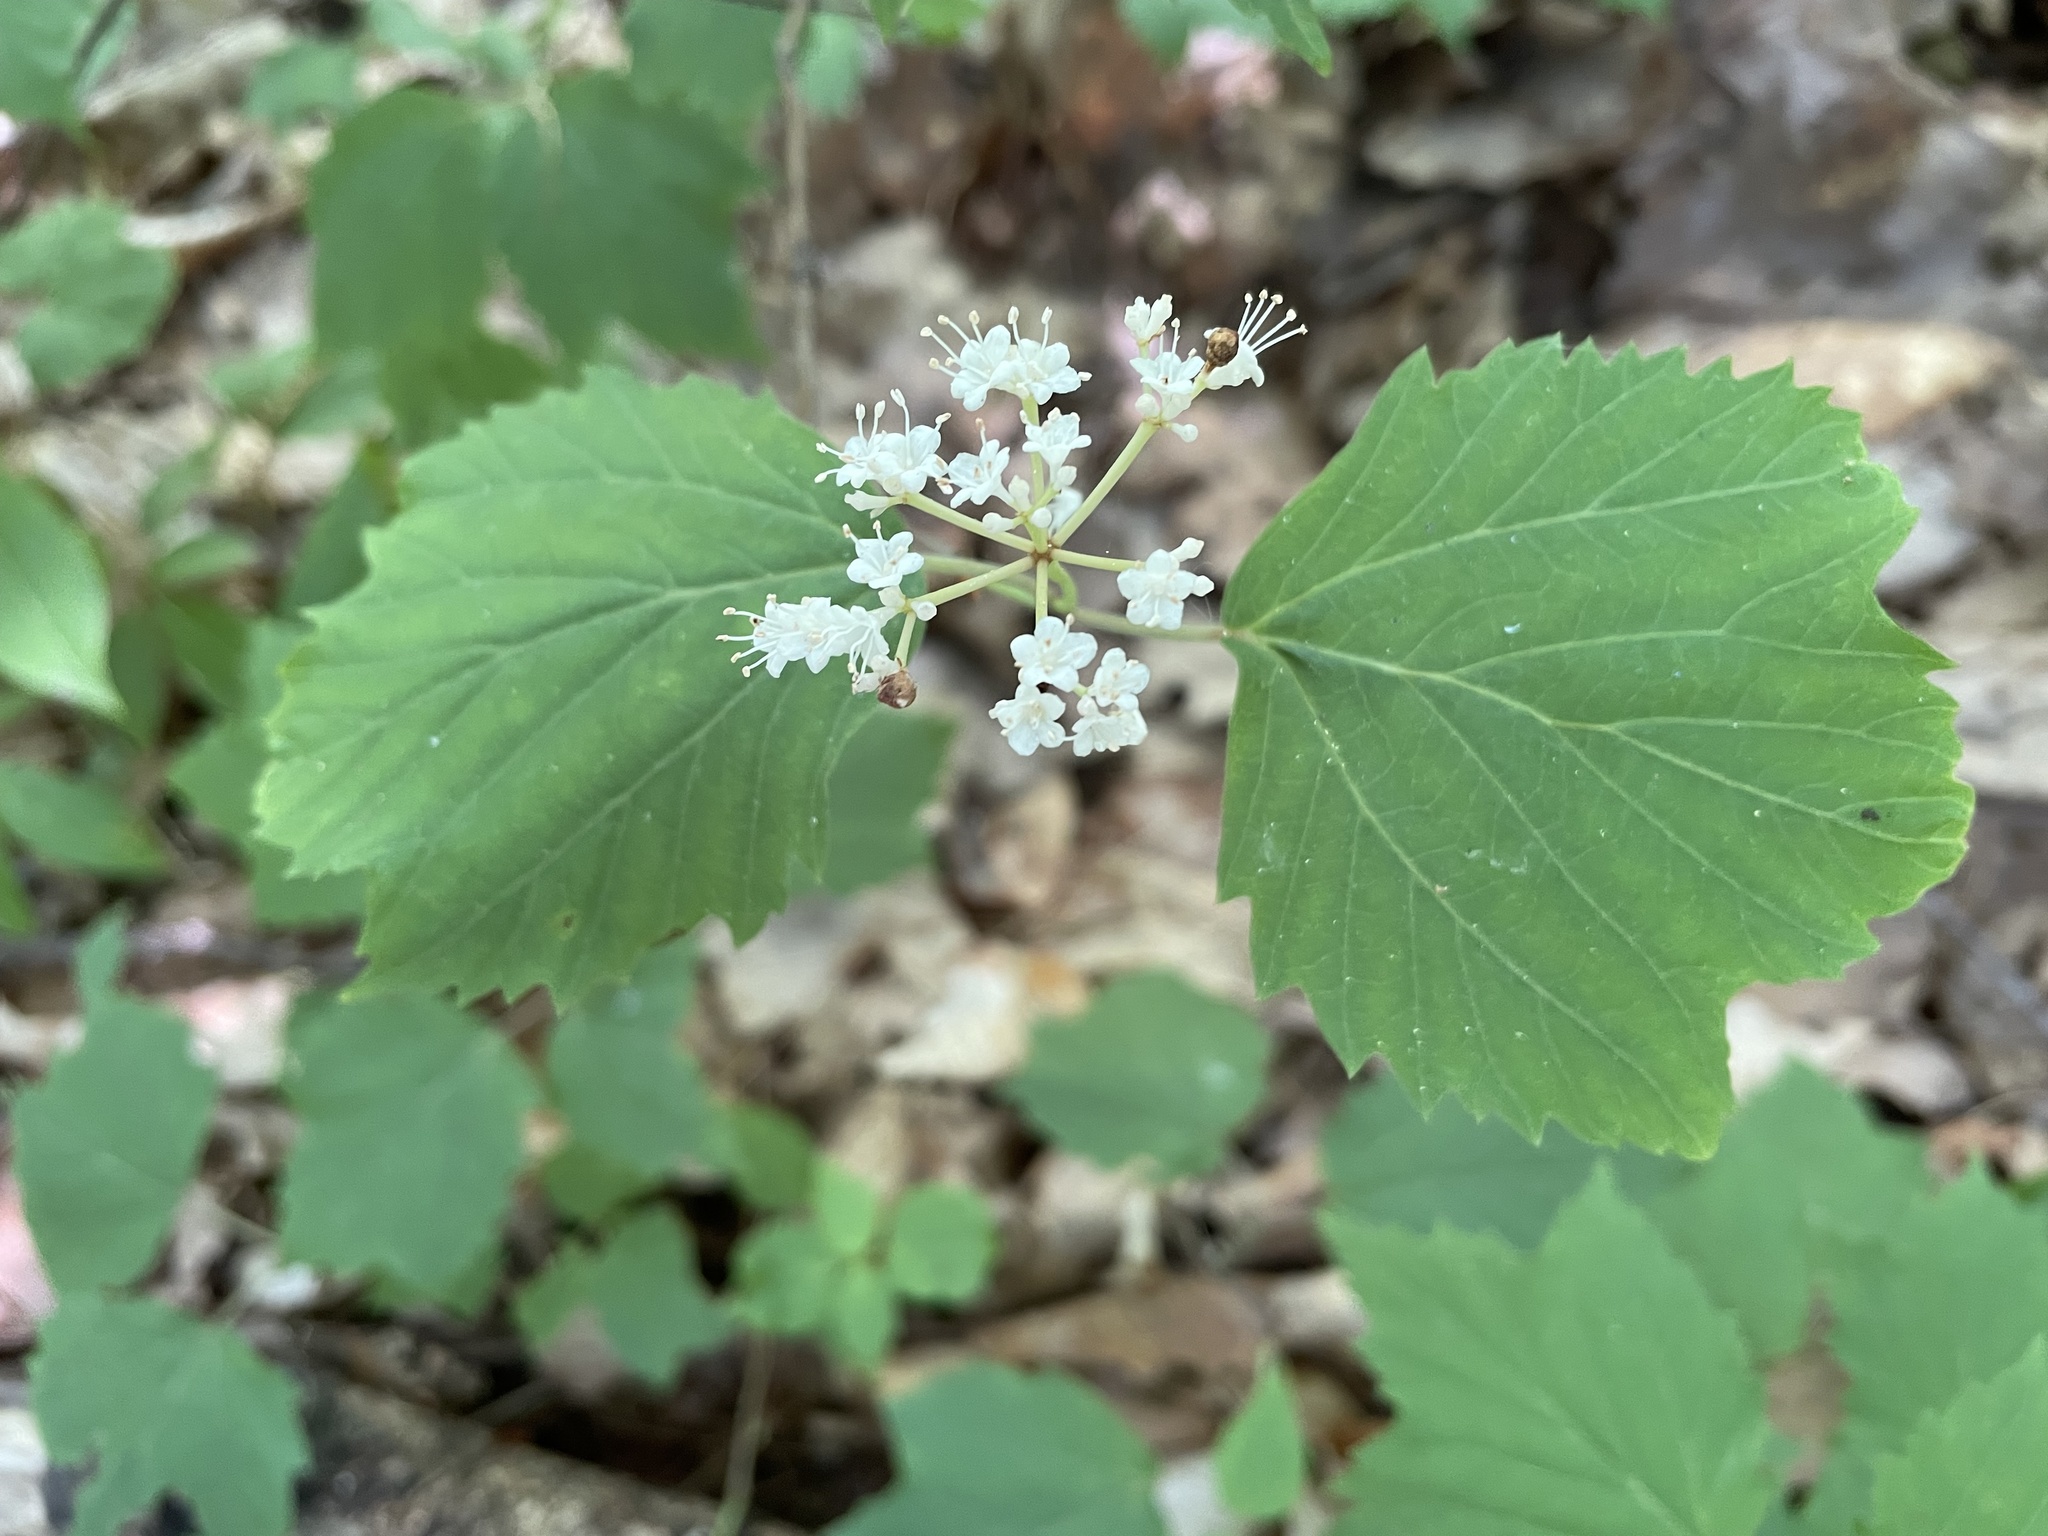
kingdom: Plantae
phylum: Tracheophyta
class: Magnoliopsida
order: Dipsacales
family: Viburnaceae
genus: Viburnum
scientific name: Viburnum acerifolium
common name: Dockmackie
